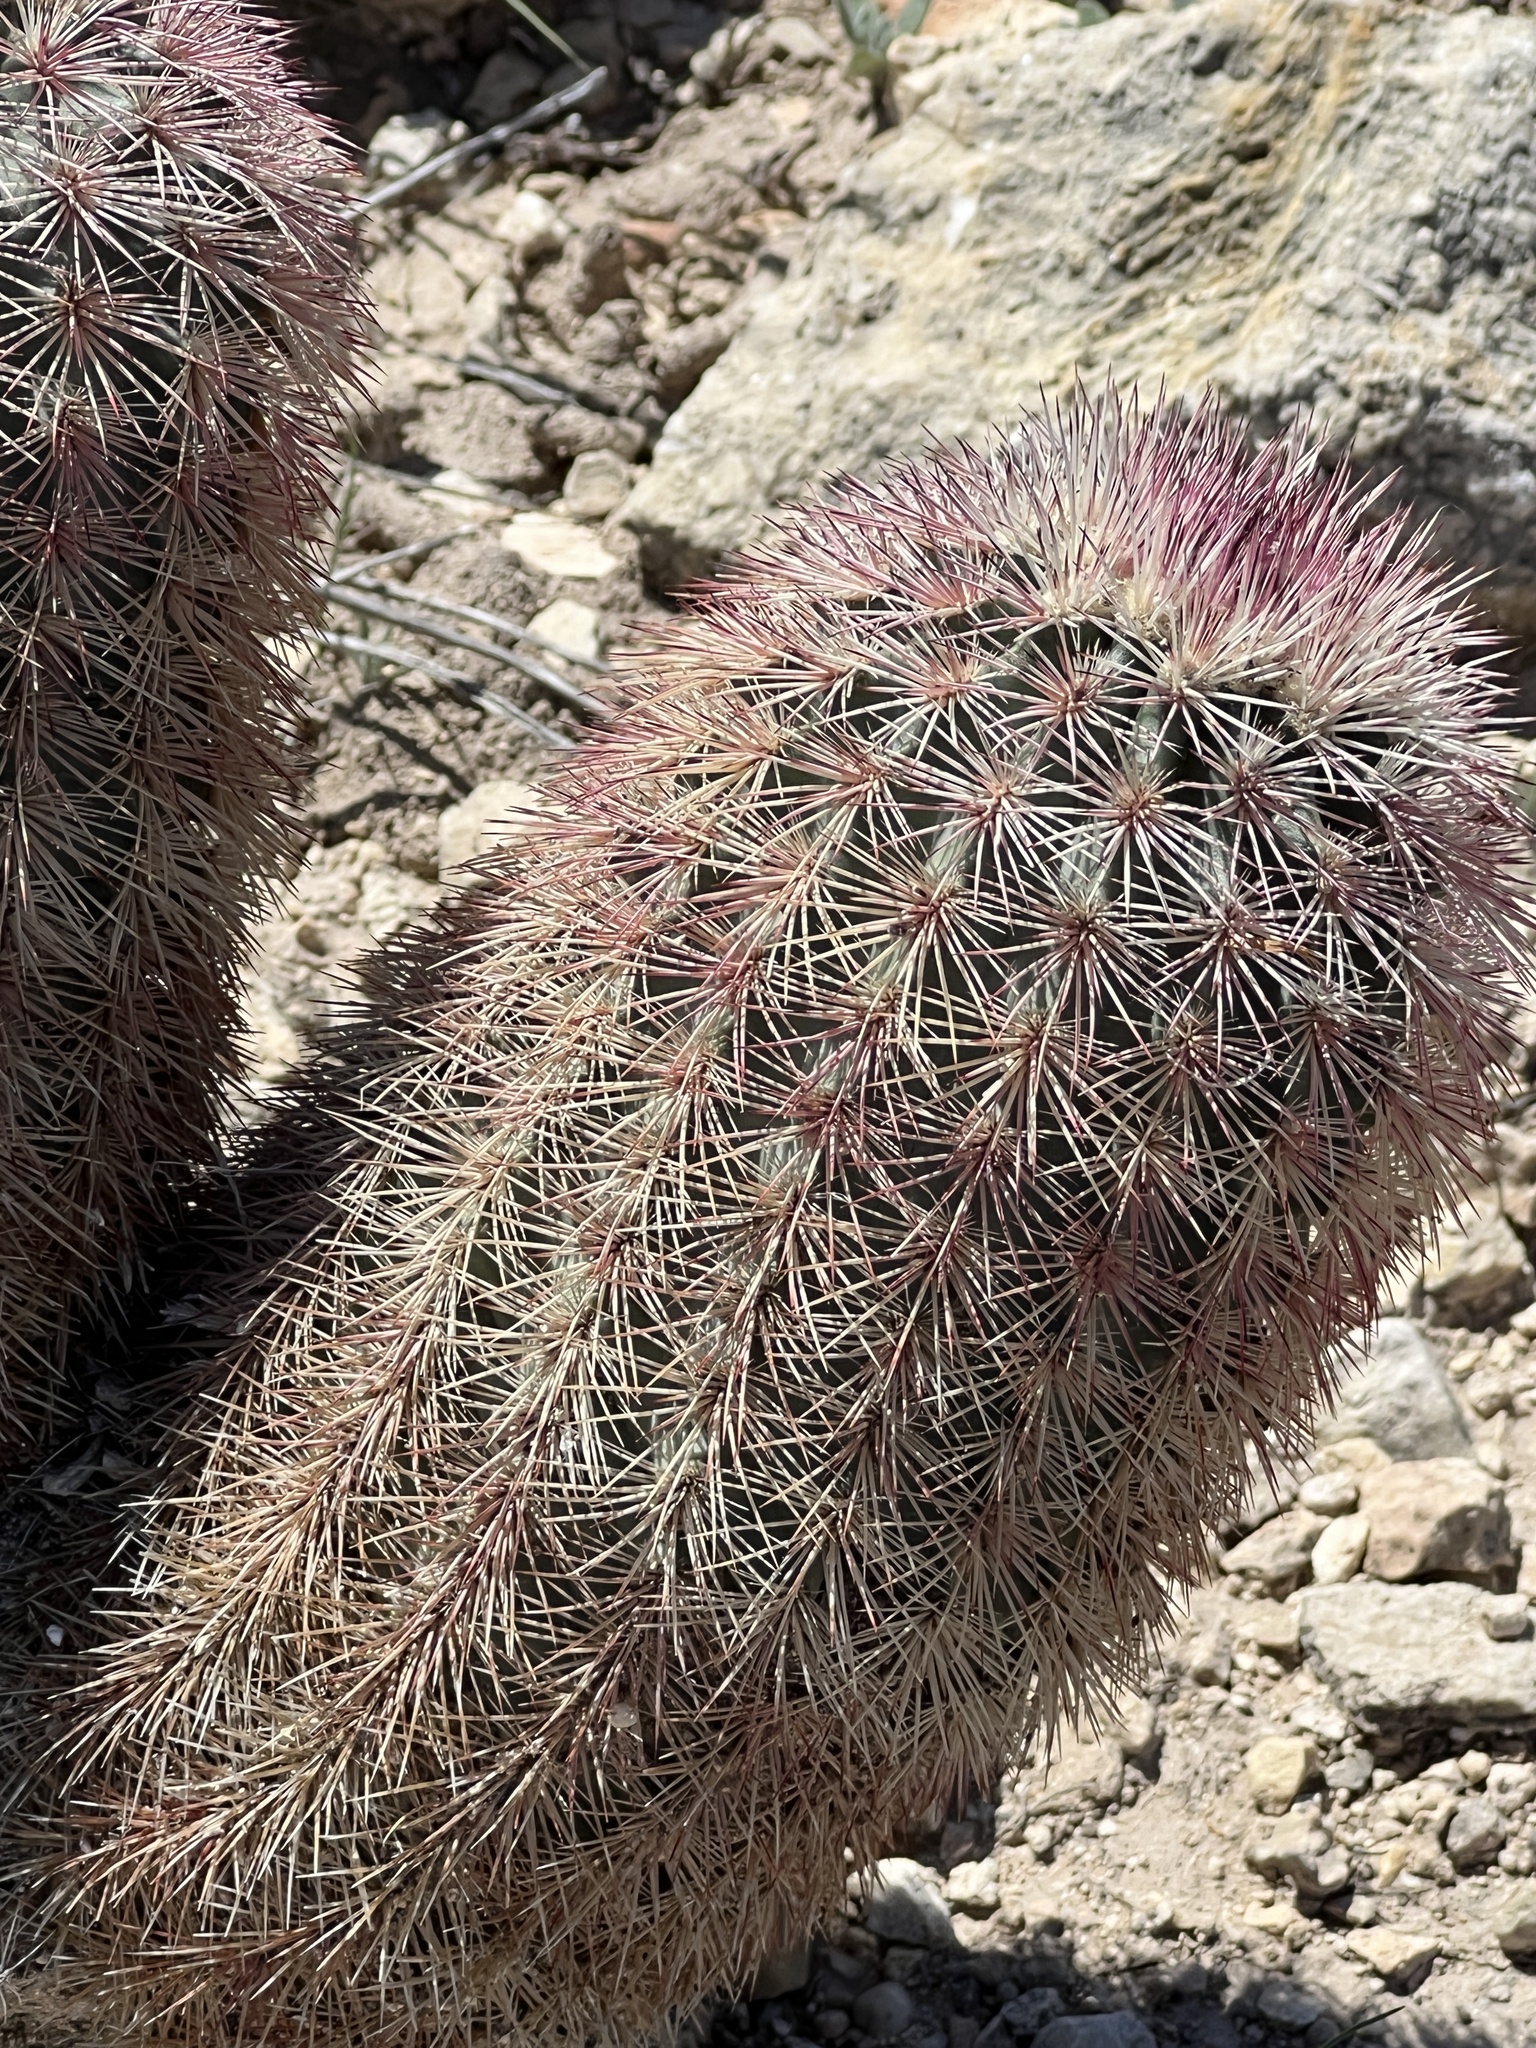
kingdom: Plantae
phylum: Tracheophyta
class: Magnoliopsida
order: Caryophyllales
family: Cactaceae
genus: Echinocereus
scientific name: Echinocereus dasyacanthus
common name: Spiny hedgehog cactus
